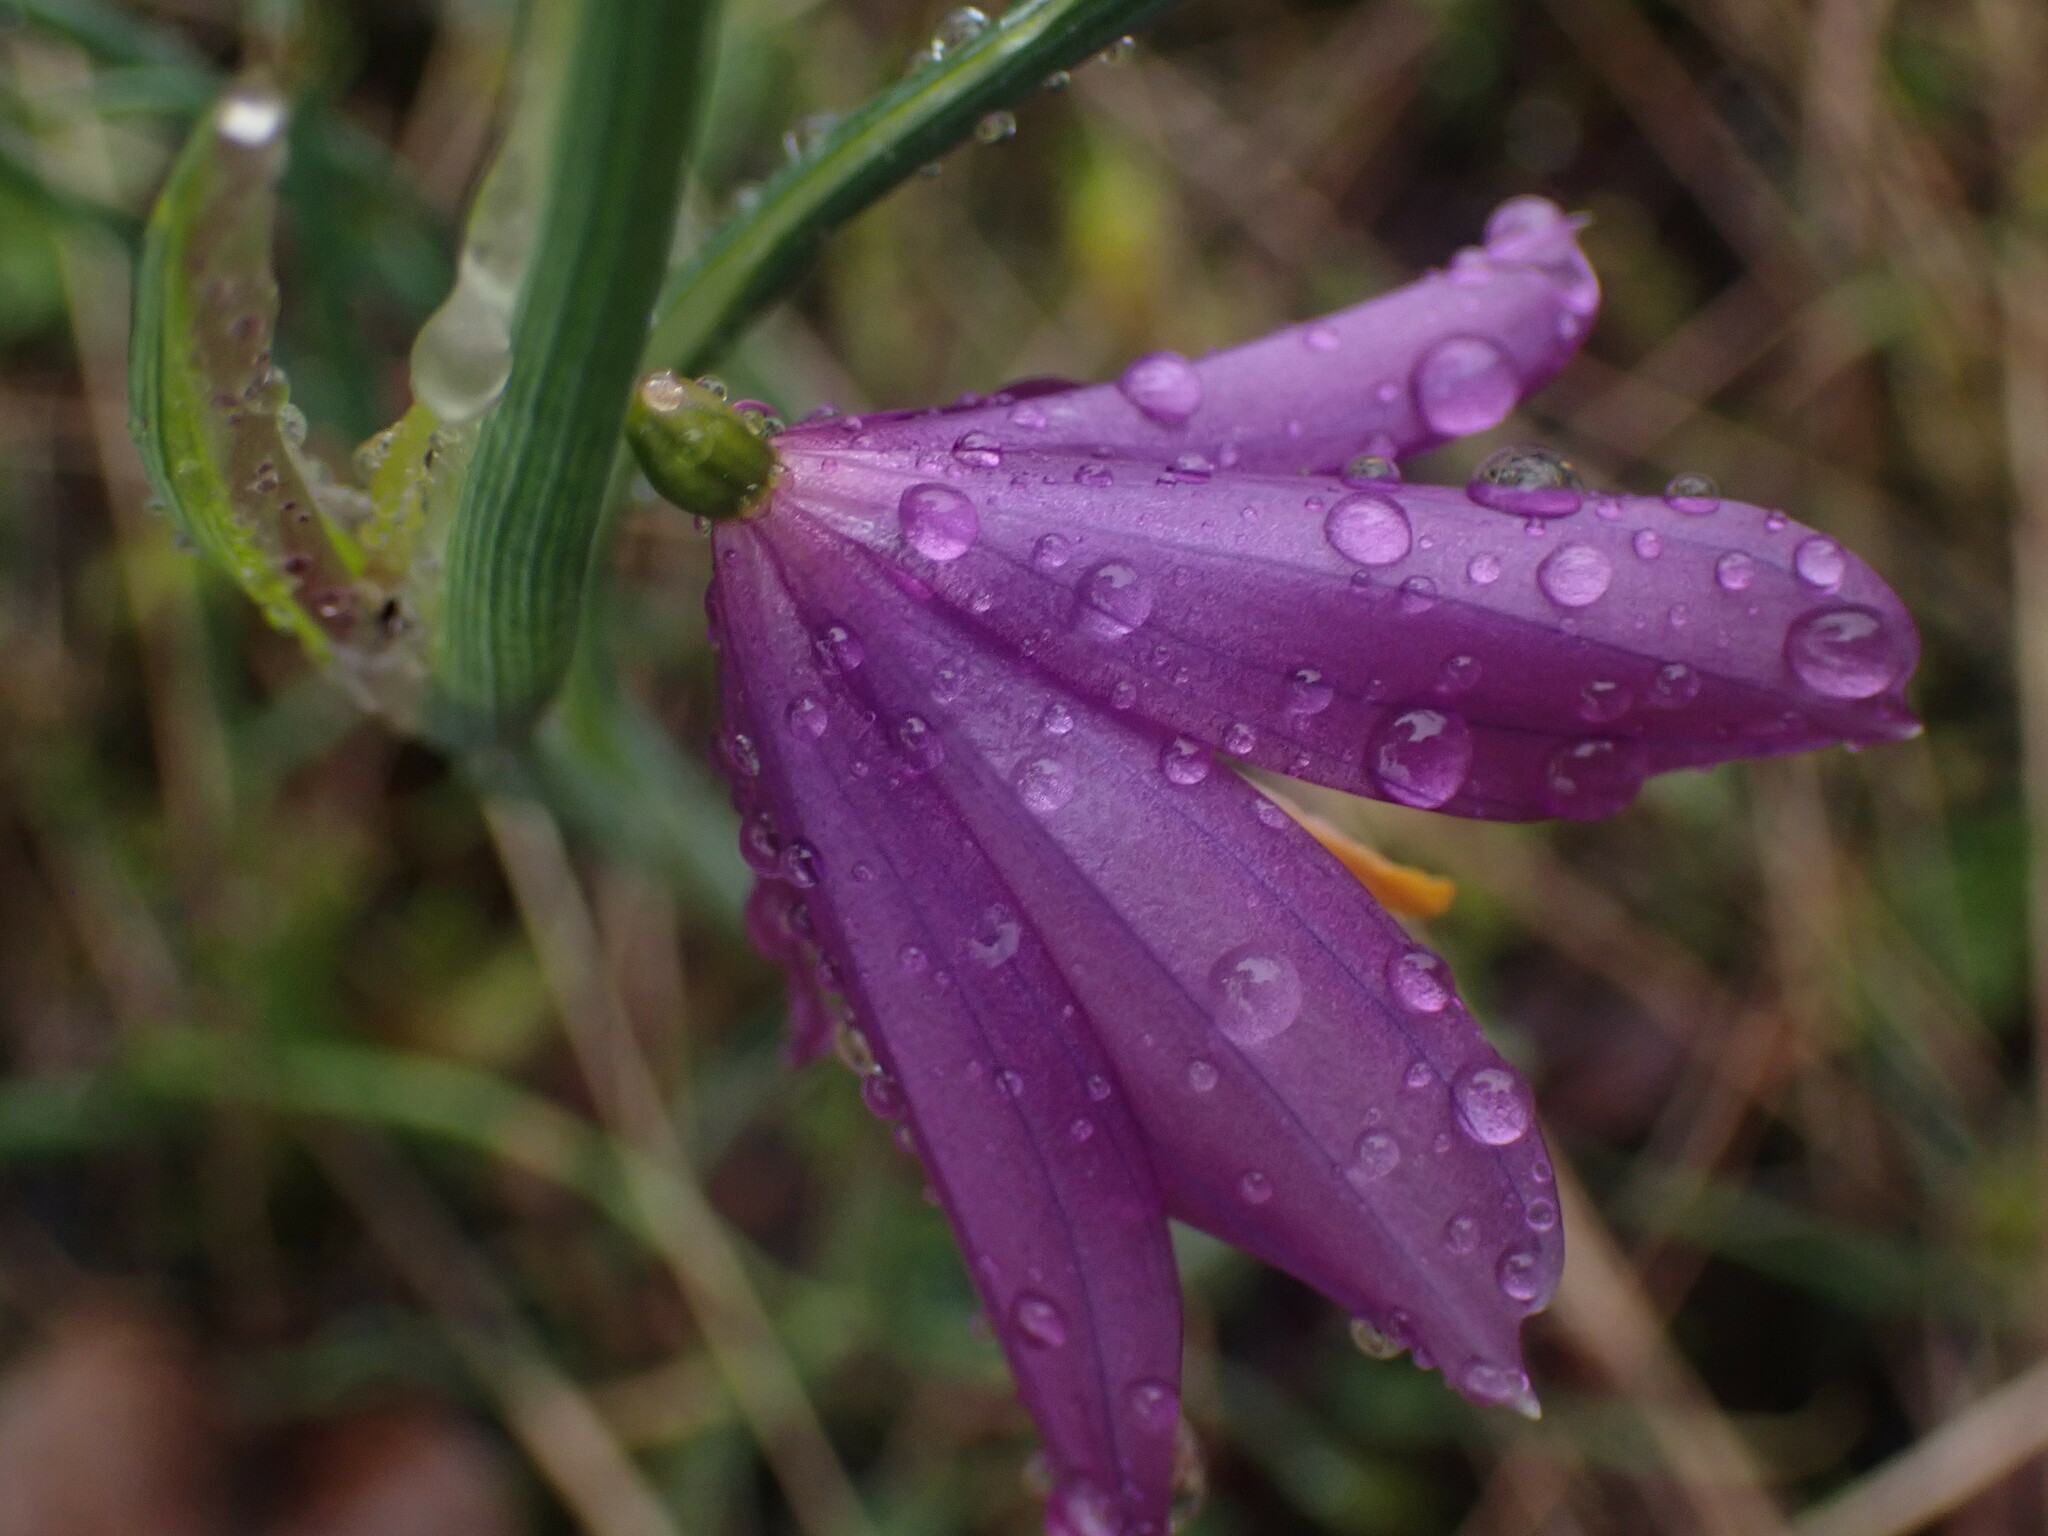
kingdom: Plantae
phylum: Tracheophyta
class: Liliopsida
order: Asparagales
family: Iridaceae
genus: Olsynium
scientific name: Olsynium douglasii
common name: Douglas' grasswidow
